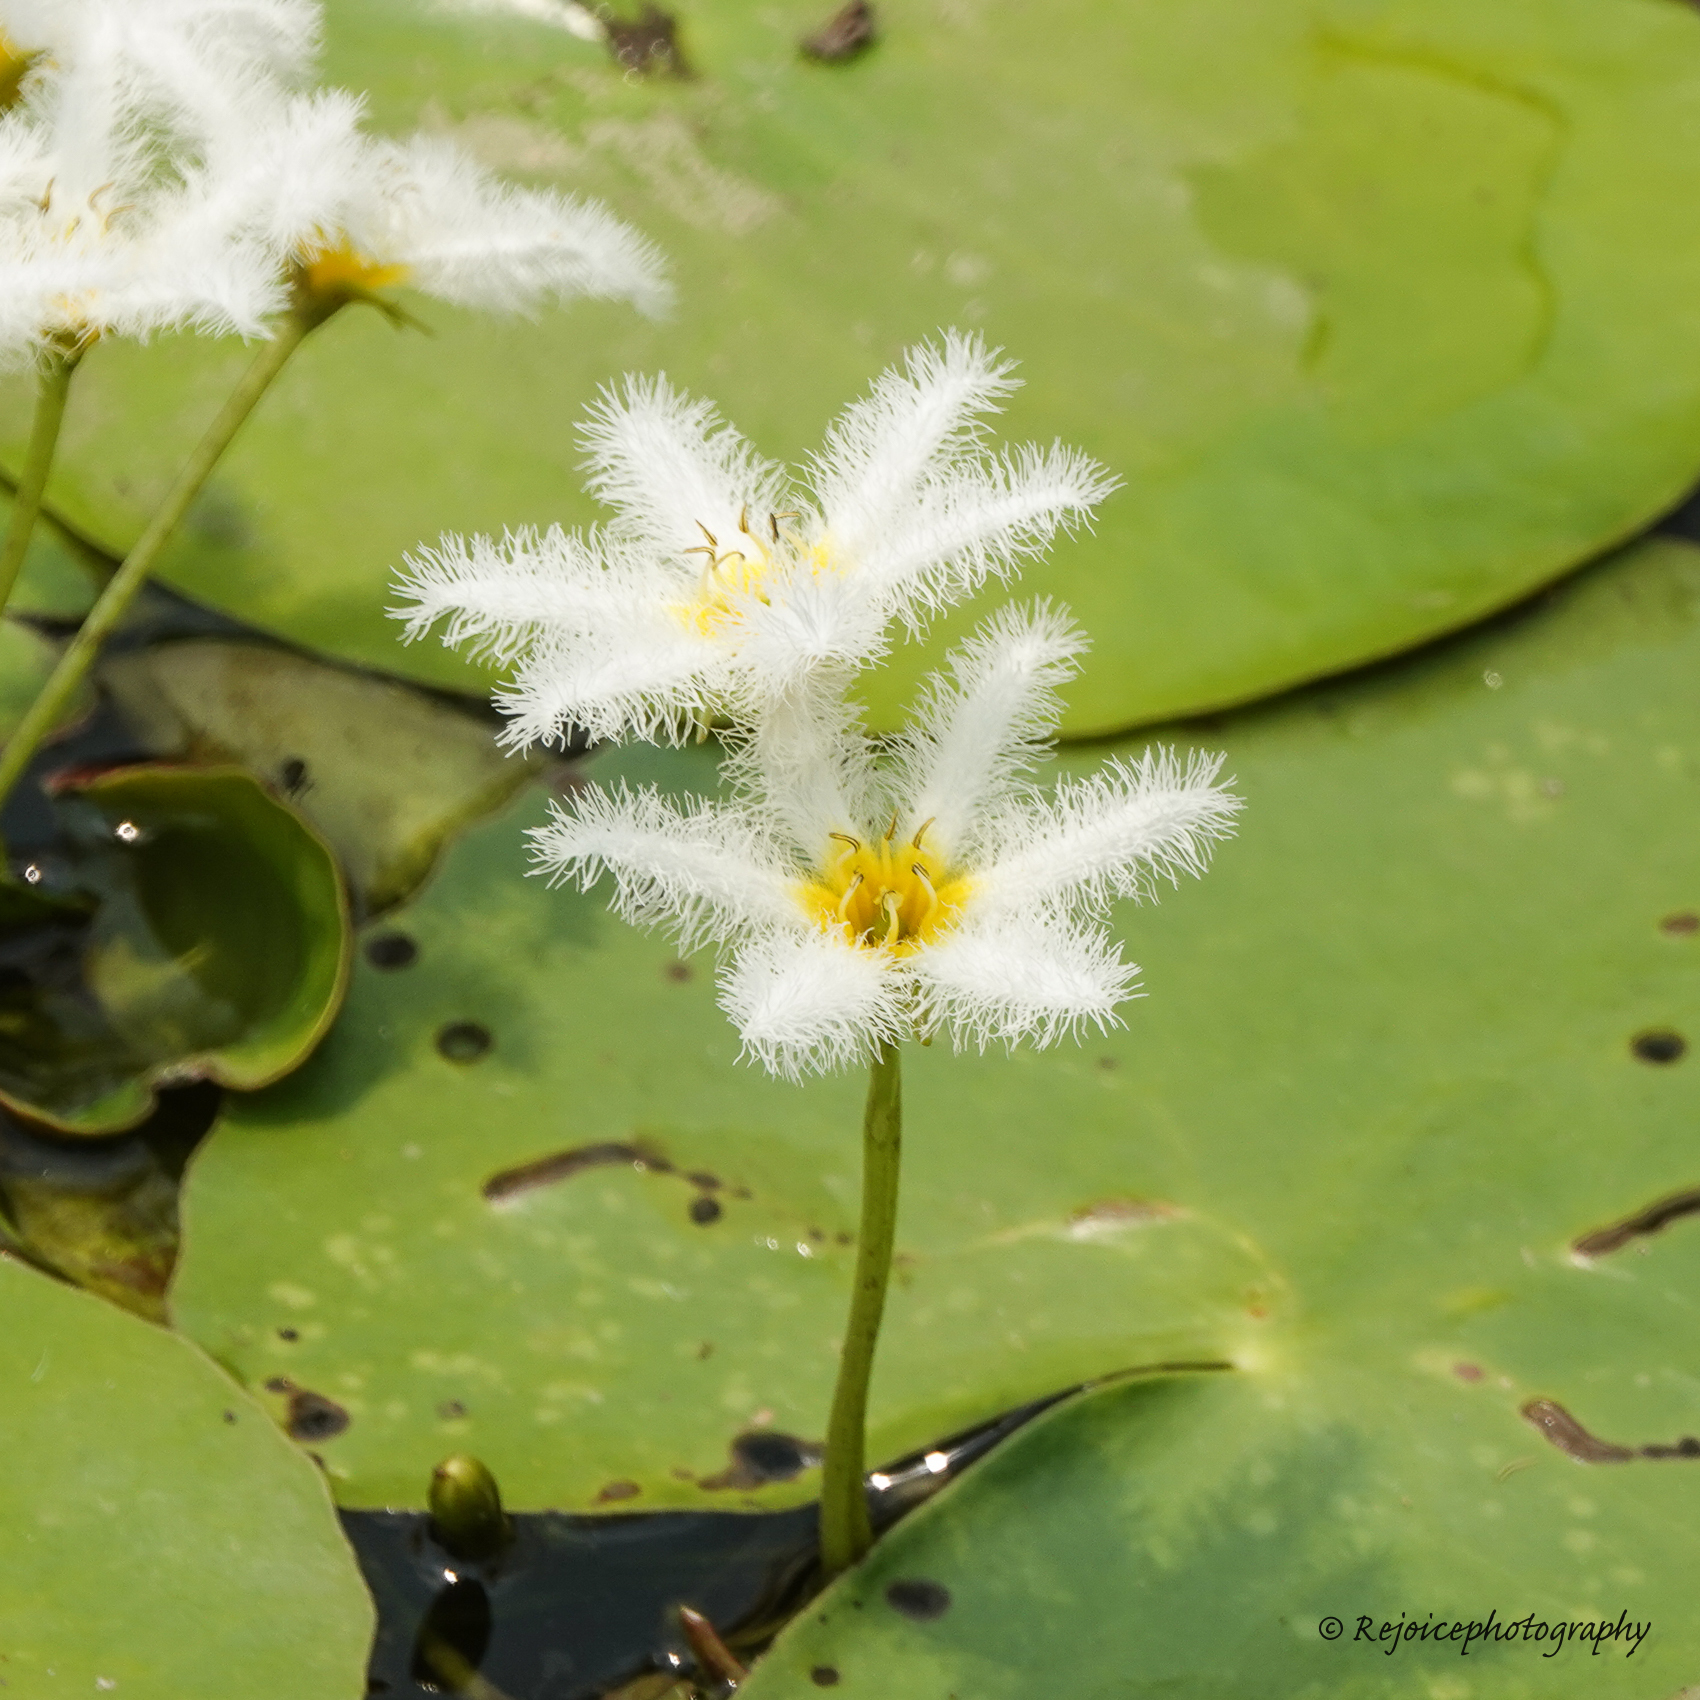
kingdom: Plantae
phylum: Tracheophyta
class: Magnoliopsida
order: Asterales
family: Menyanthaceae
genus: Nymphoides
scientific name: Nymphoides indica
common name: Water-snowflake
